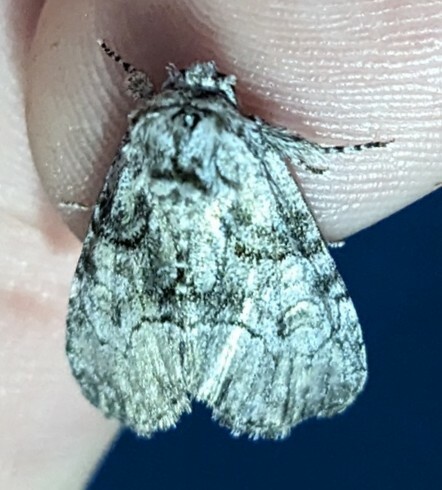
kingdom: Animalia
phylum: Arthropoda
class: Insecta
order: Lepidoptera
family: Noctuidae
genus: Raphia
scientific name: Raphia frater
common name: Brother
